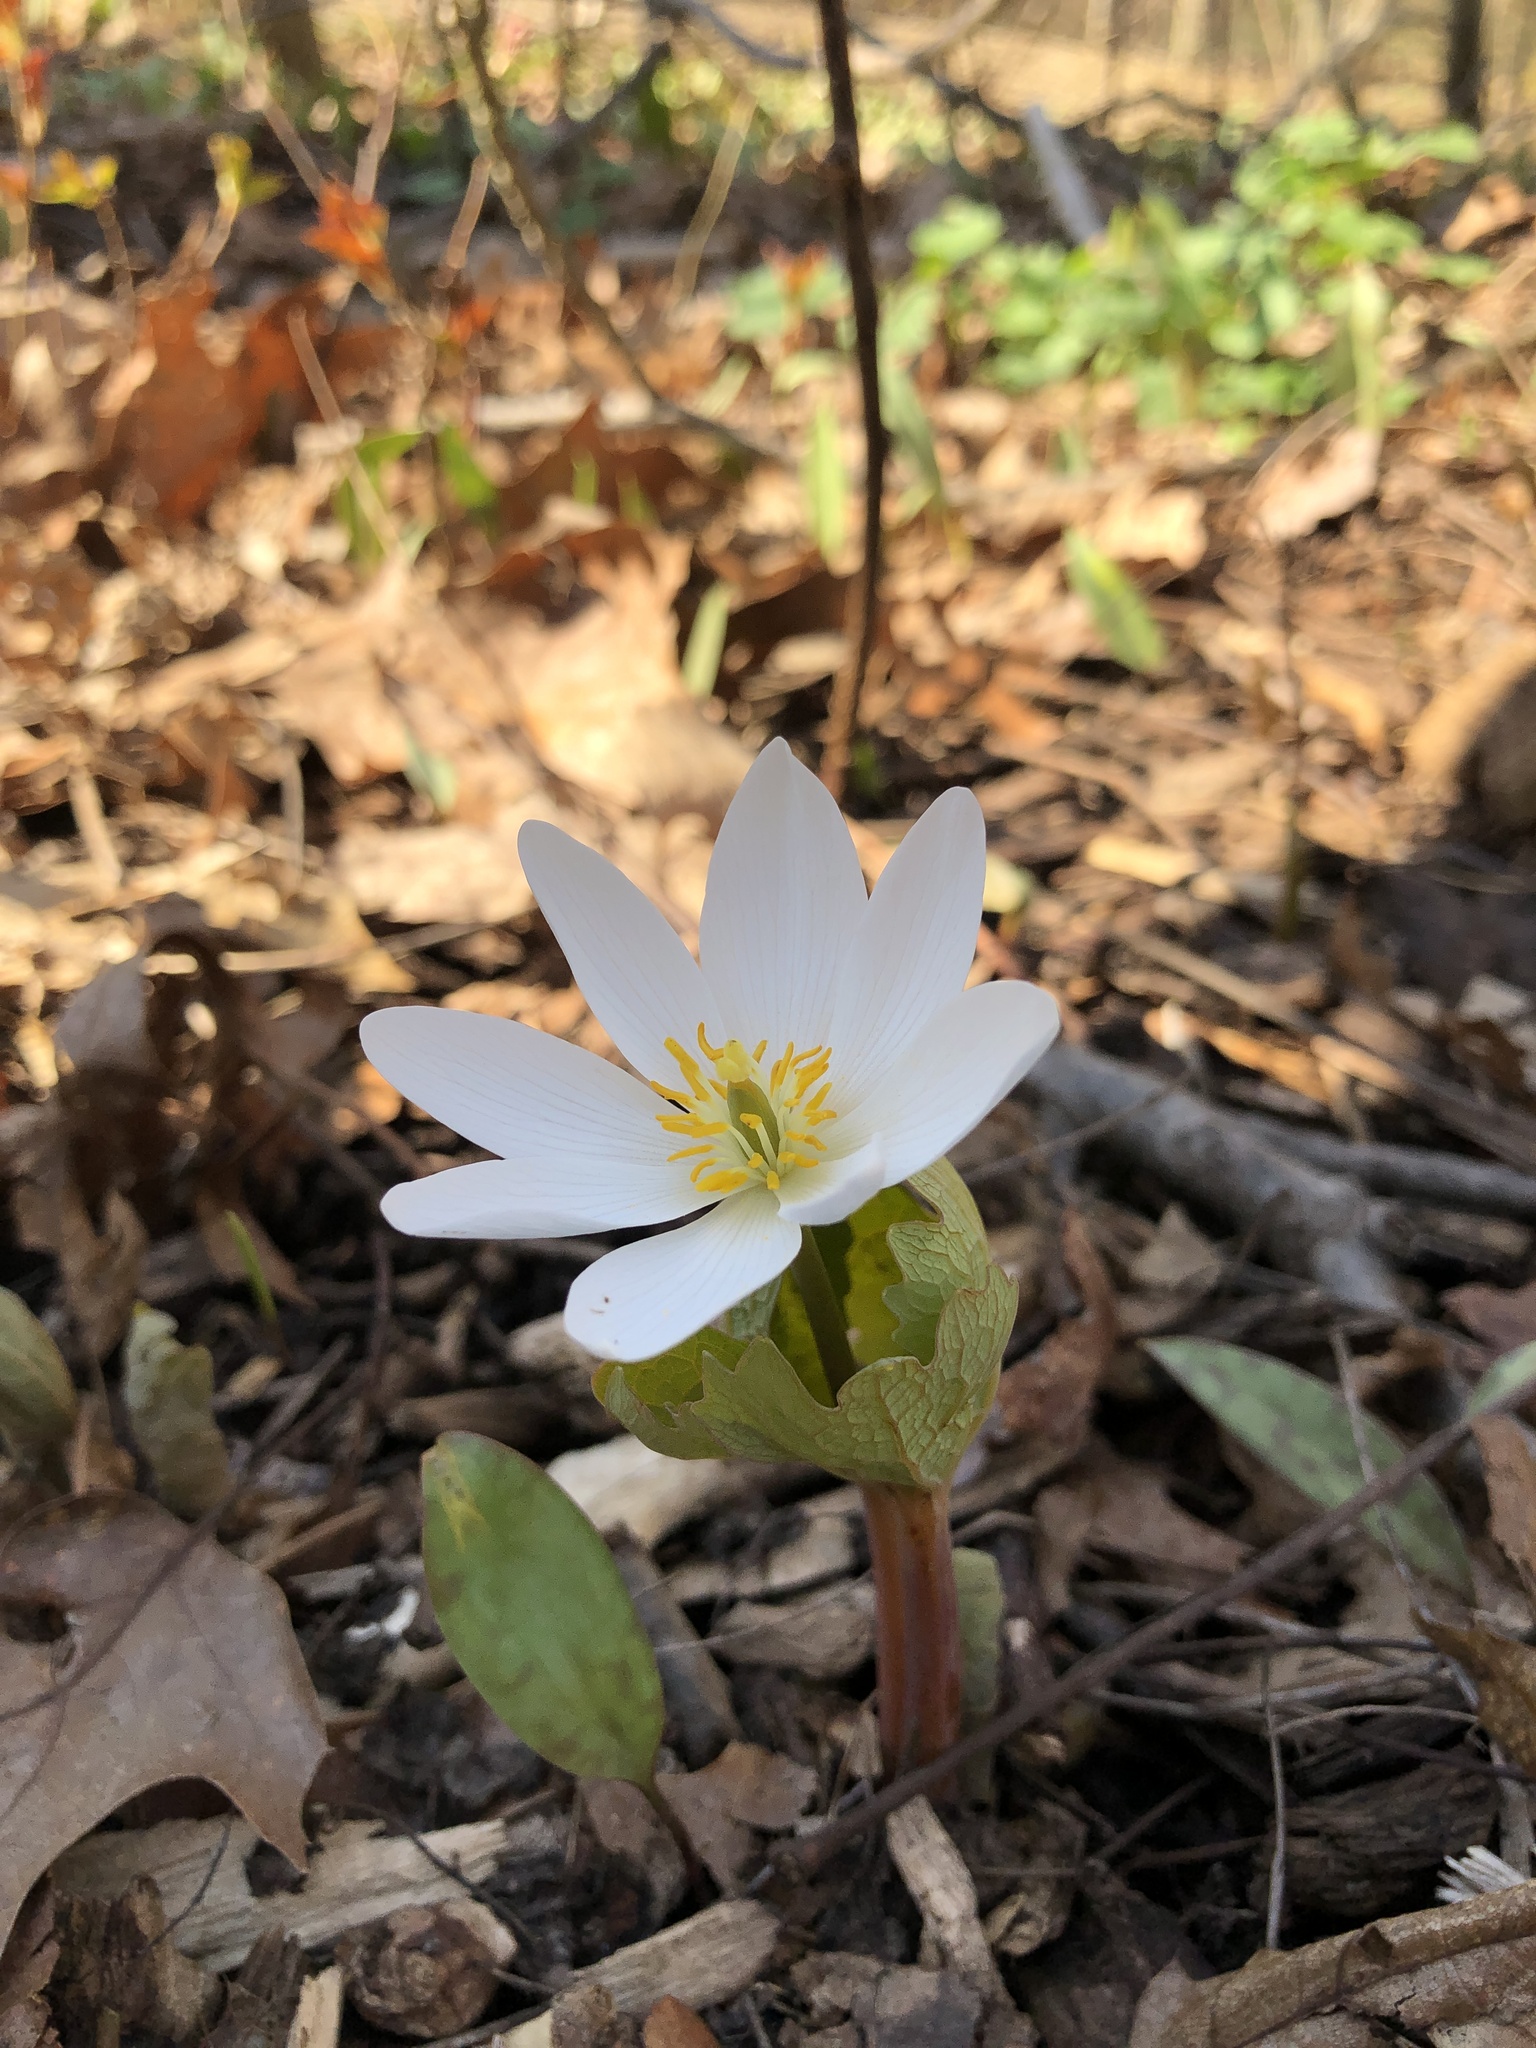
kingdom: Plantae
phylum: Tracheophyta
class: Magnoliopsida
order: Ranunculales
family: Papaveraceae
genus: Sanguinaria
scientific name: Sanguinaria canadensis
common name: Bloodroot
